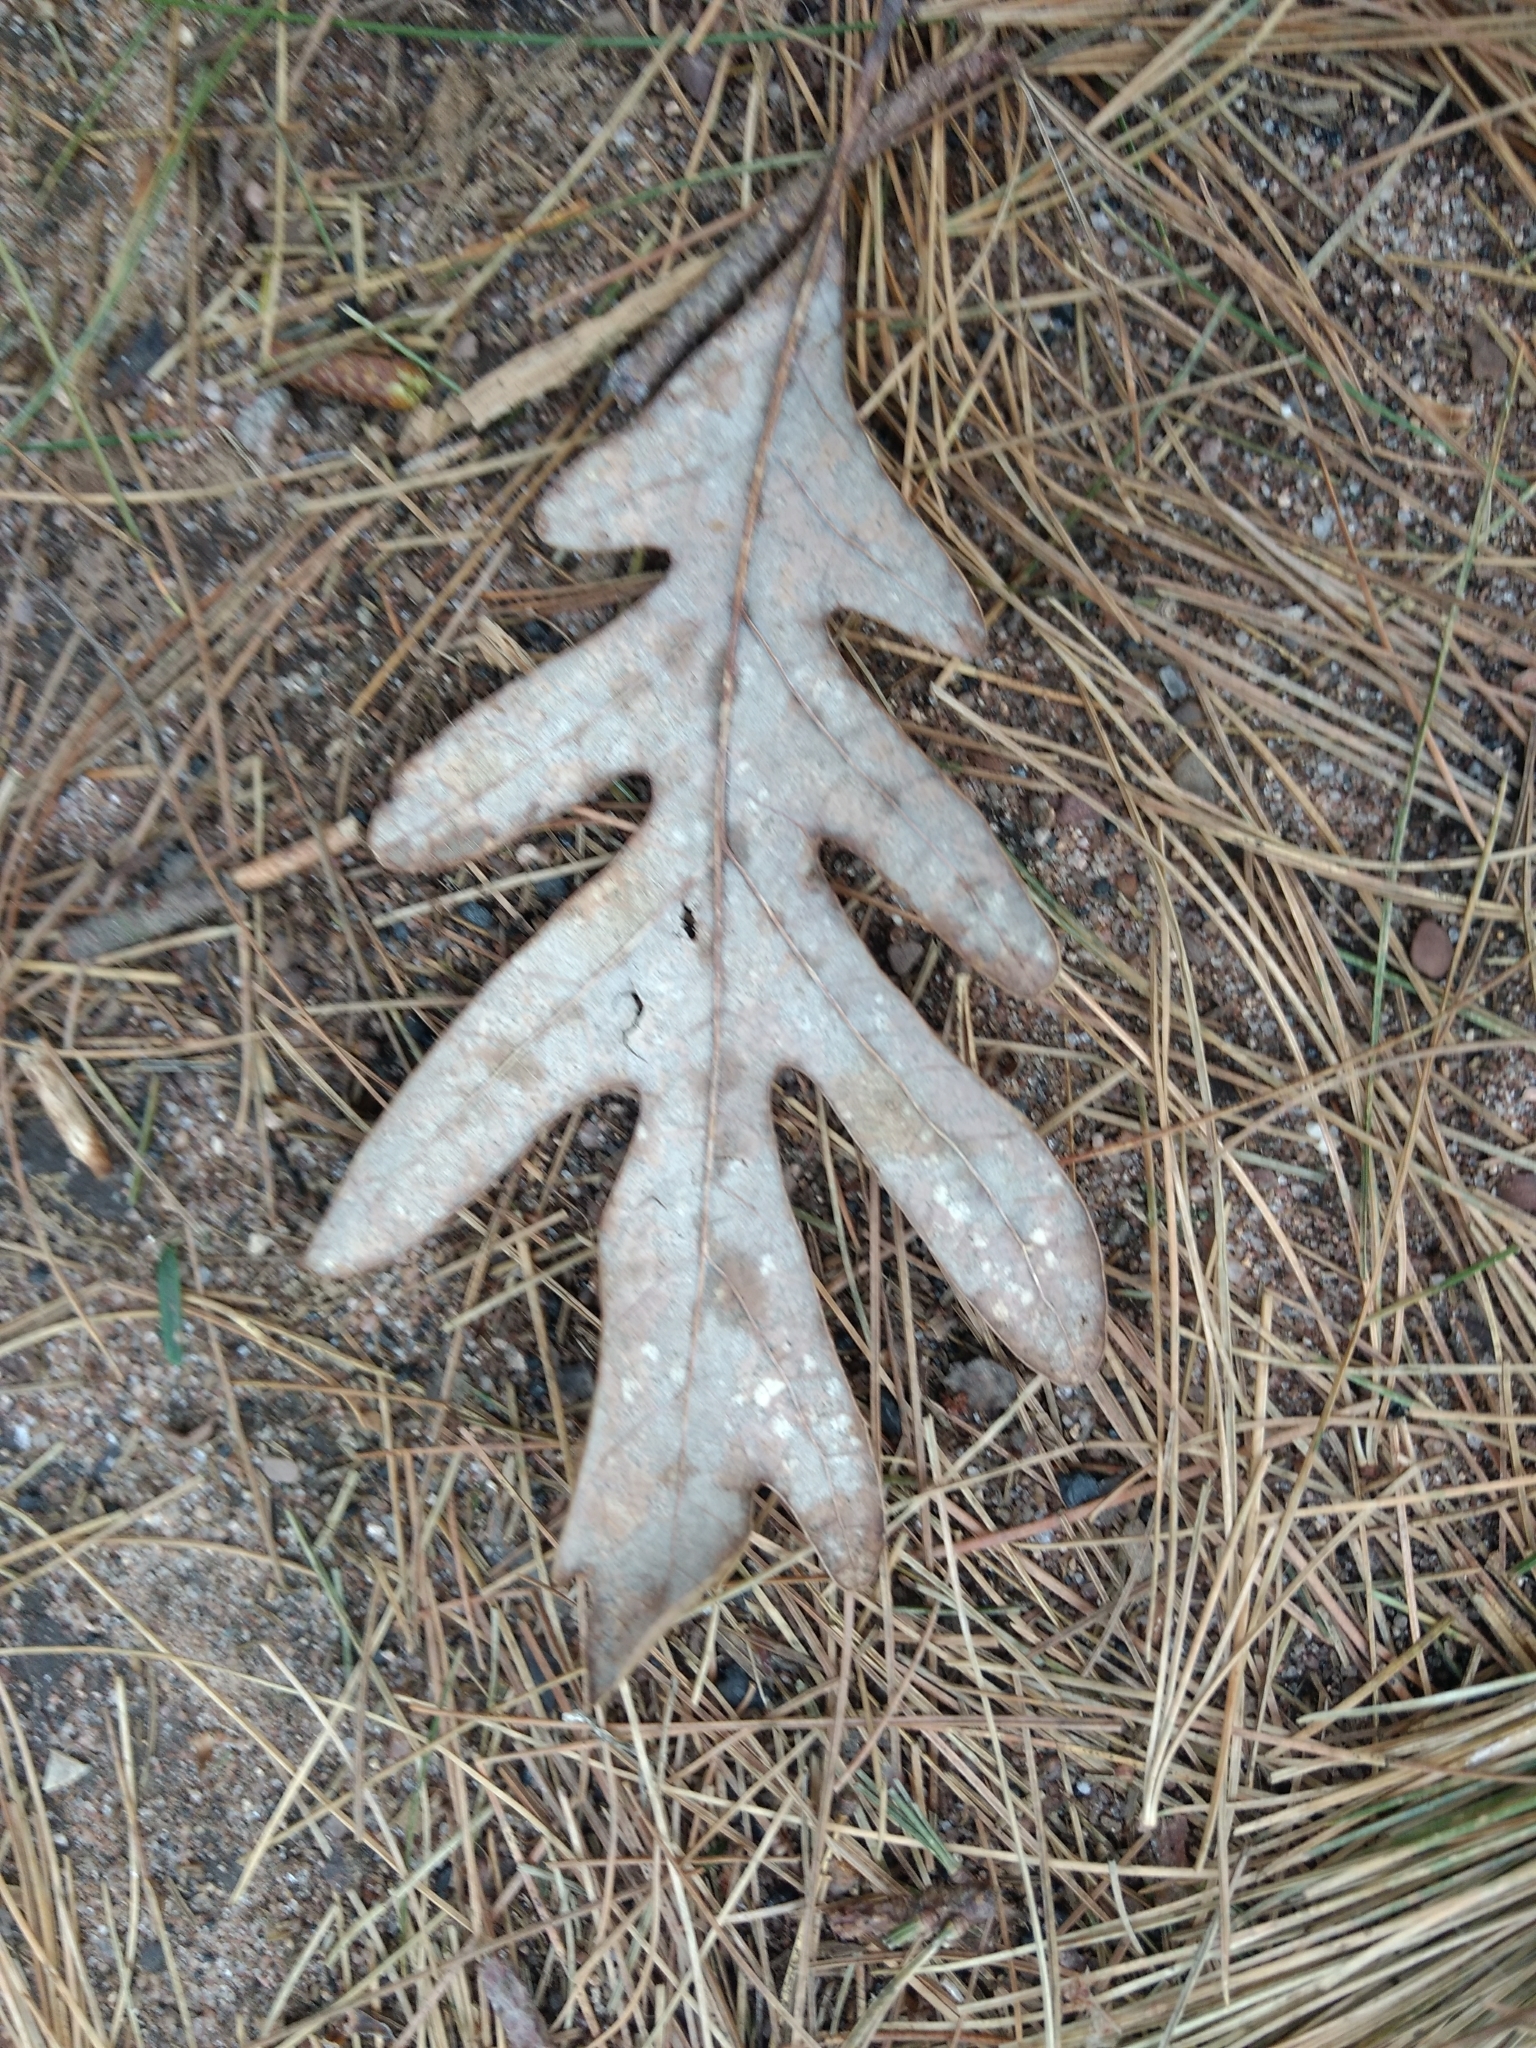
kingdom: Plantae
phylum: Tracheophyta
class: Magnoliopsida
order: Fagales
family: Fagaceae
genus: Quercus
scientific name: Quercus alba
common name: White oak
